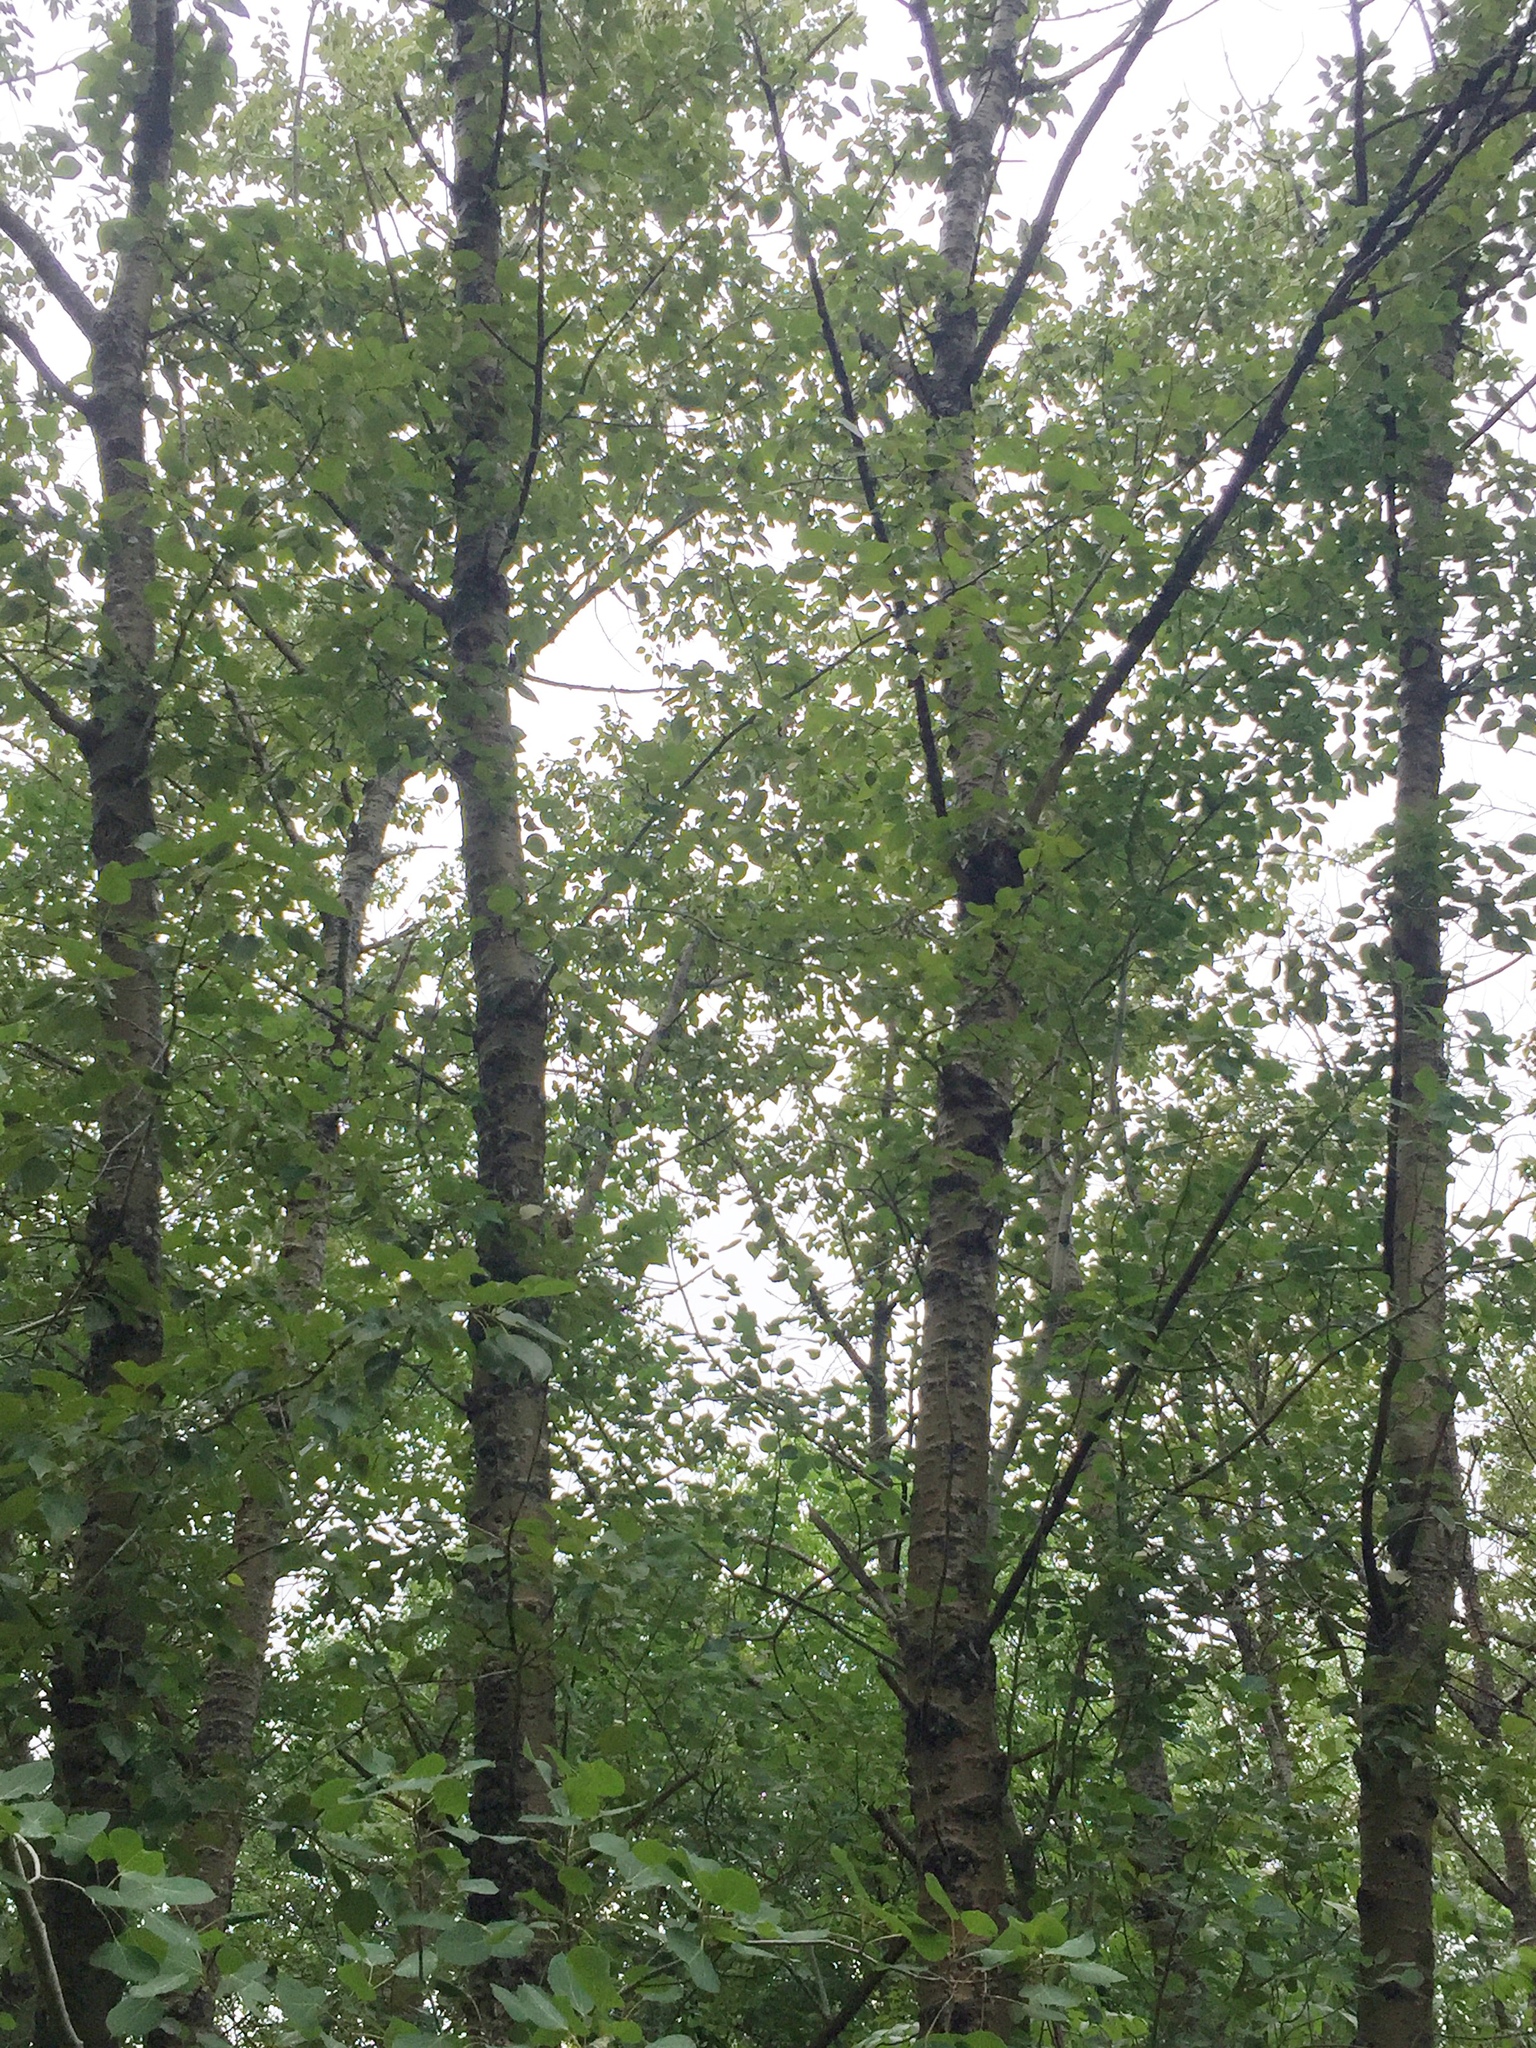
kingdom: Plantae
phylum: Tracheophyta
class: Magnoliopsida
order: Malpighiales
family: Salicaceae
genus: Populus
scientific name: Populus balsamifera
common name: Balsam poplar
